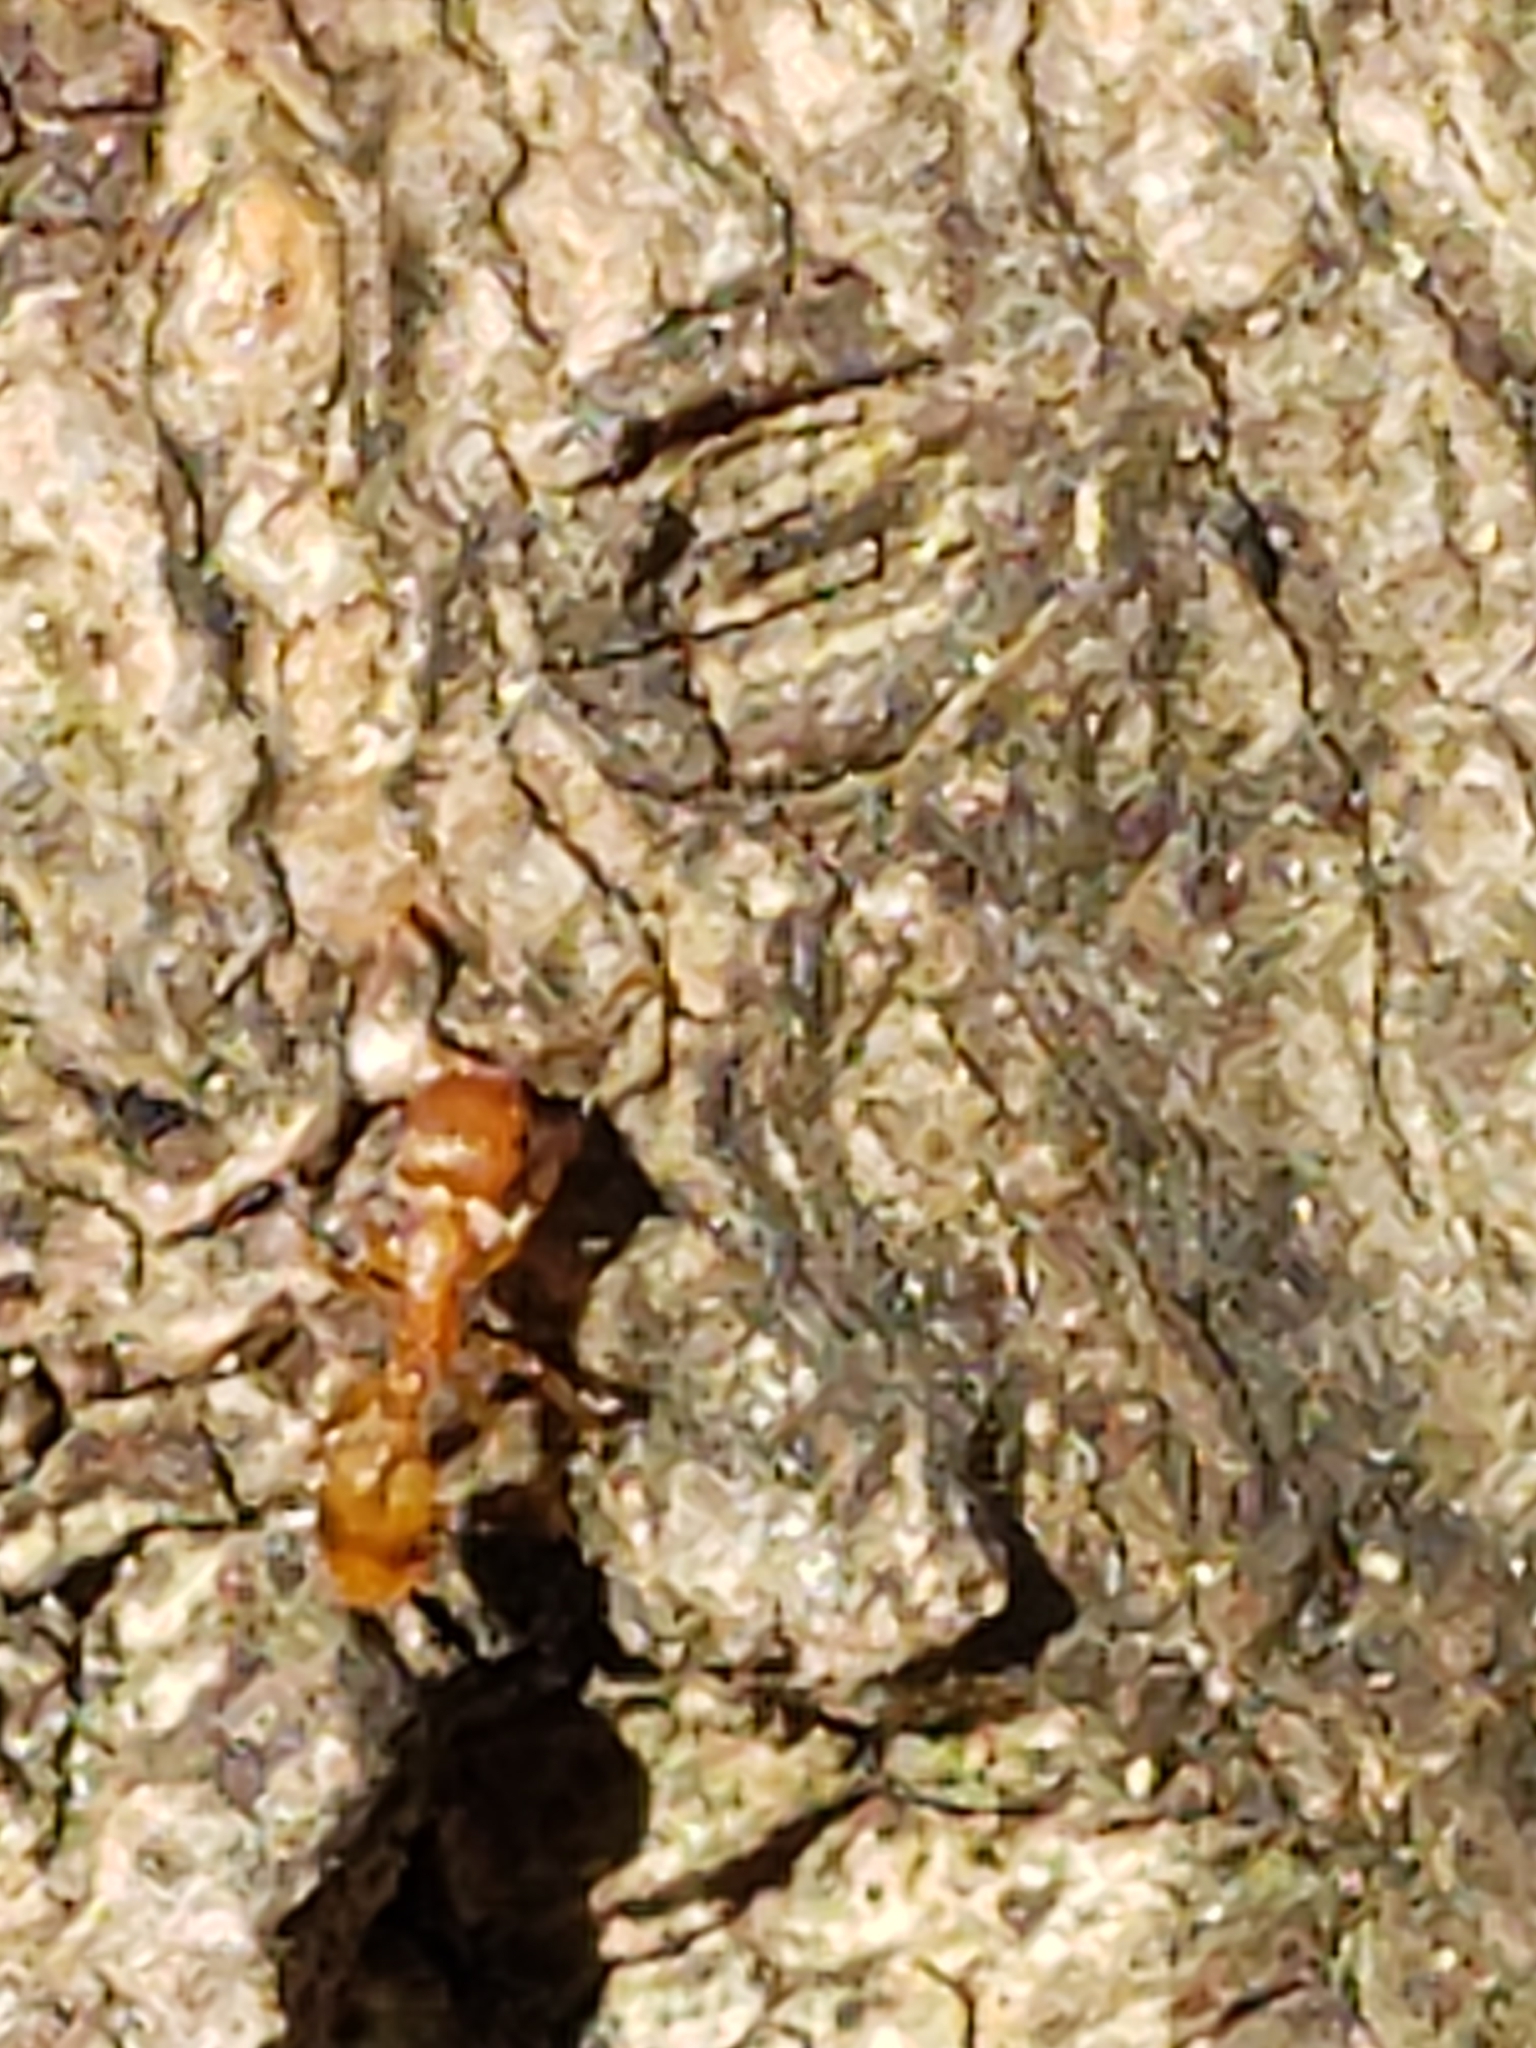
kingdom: Animalia
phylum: Arthropoda
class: Insecta
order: Hymenoptera
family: Formicidae
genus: Temnothorax
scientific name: Temnothorax curvispinosus
